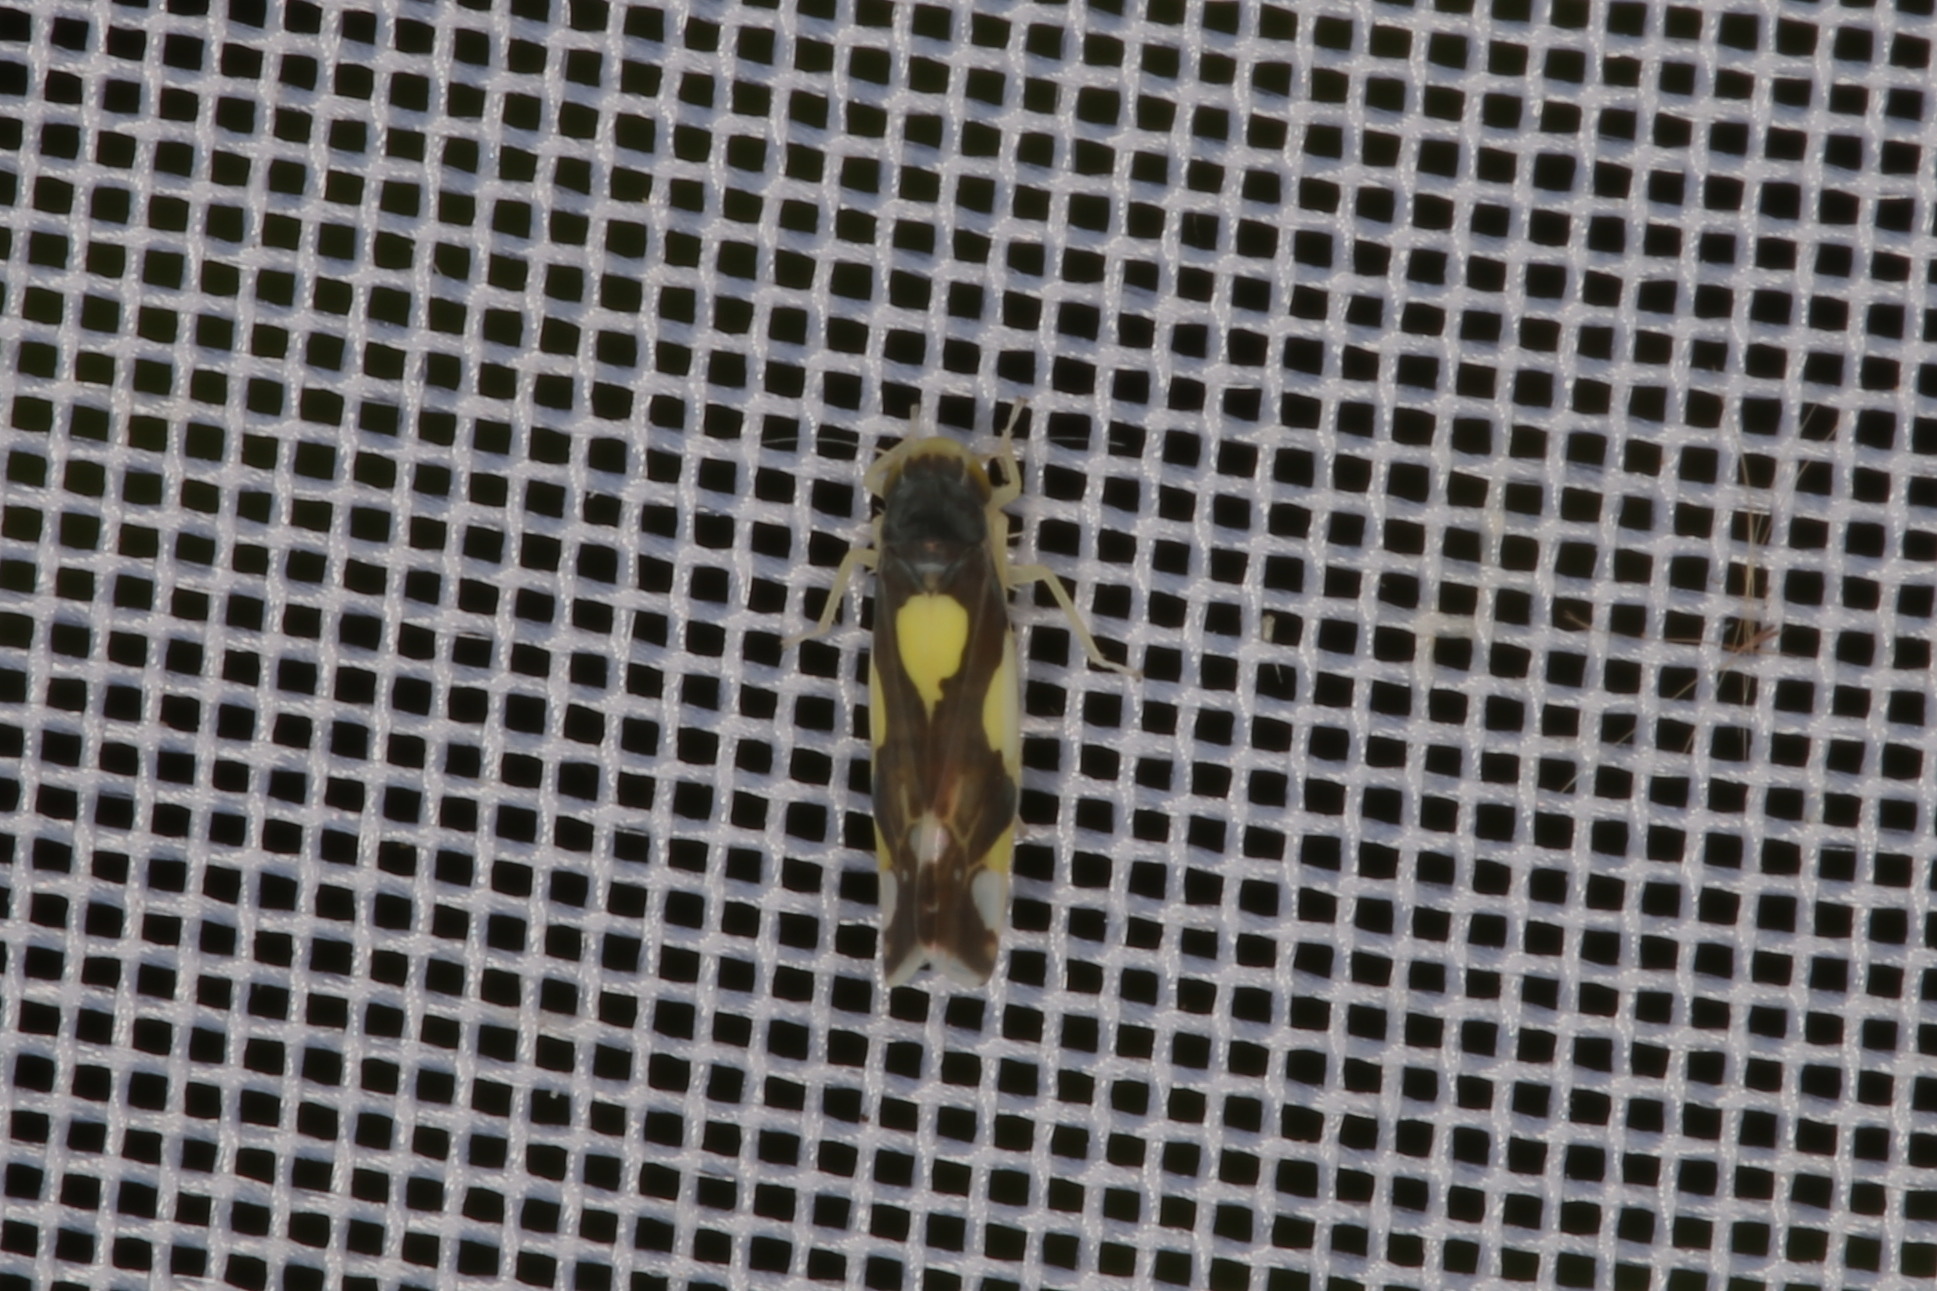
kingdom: Animalia
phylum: Arthropoda
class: Insecta
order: Hemiptera
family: Cicadellidae
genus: Eupteryx
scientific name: Eupteryx vittata
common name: Leafhopper
